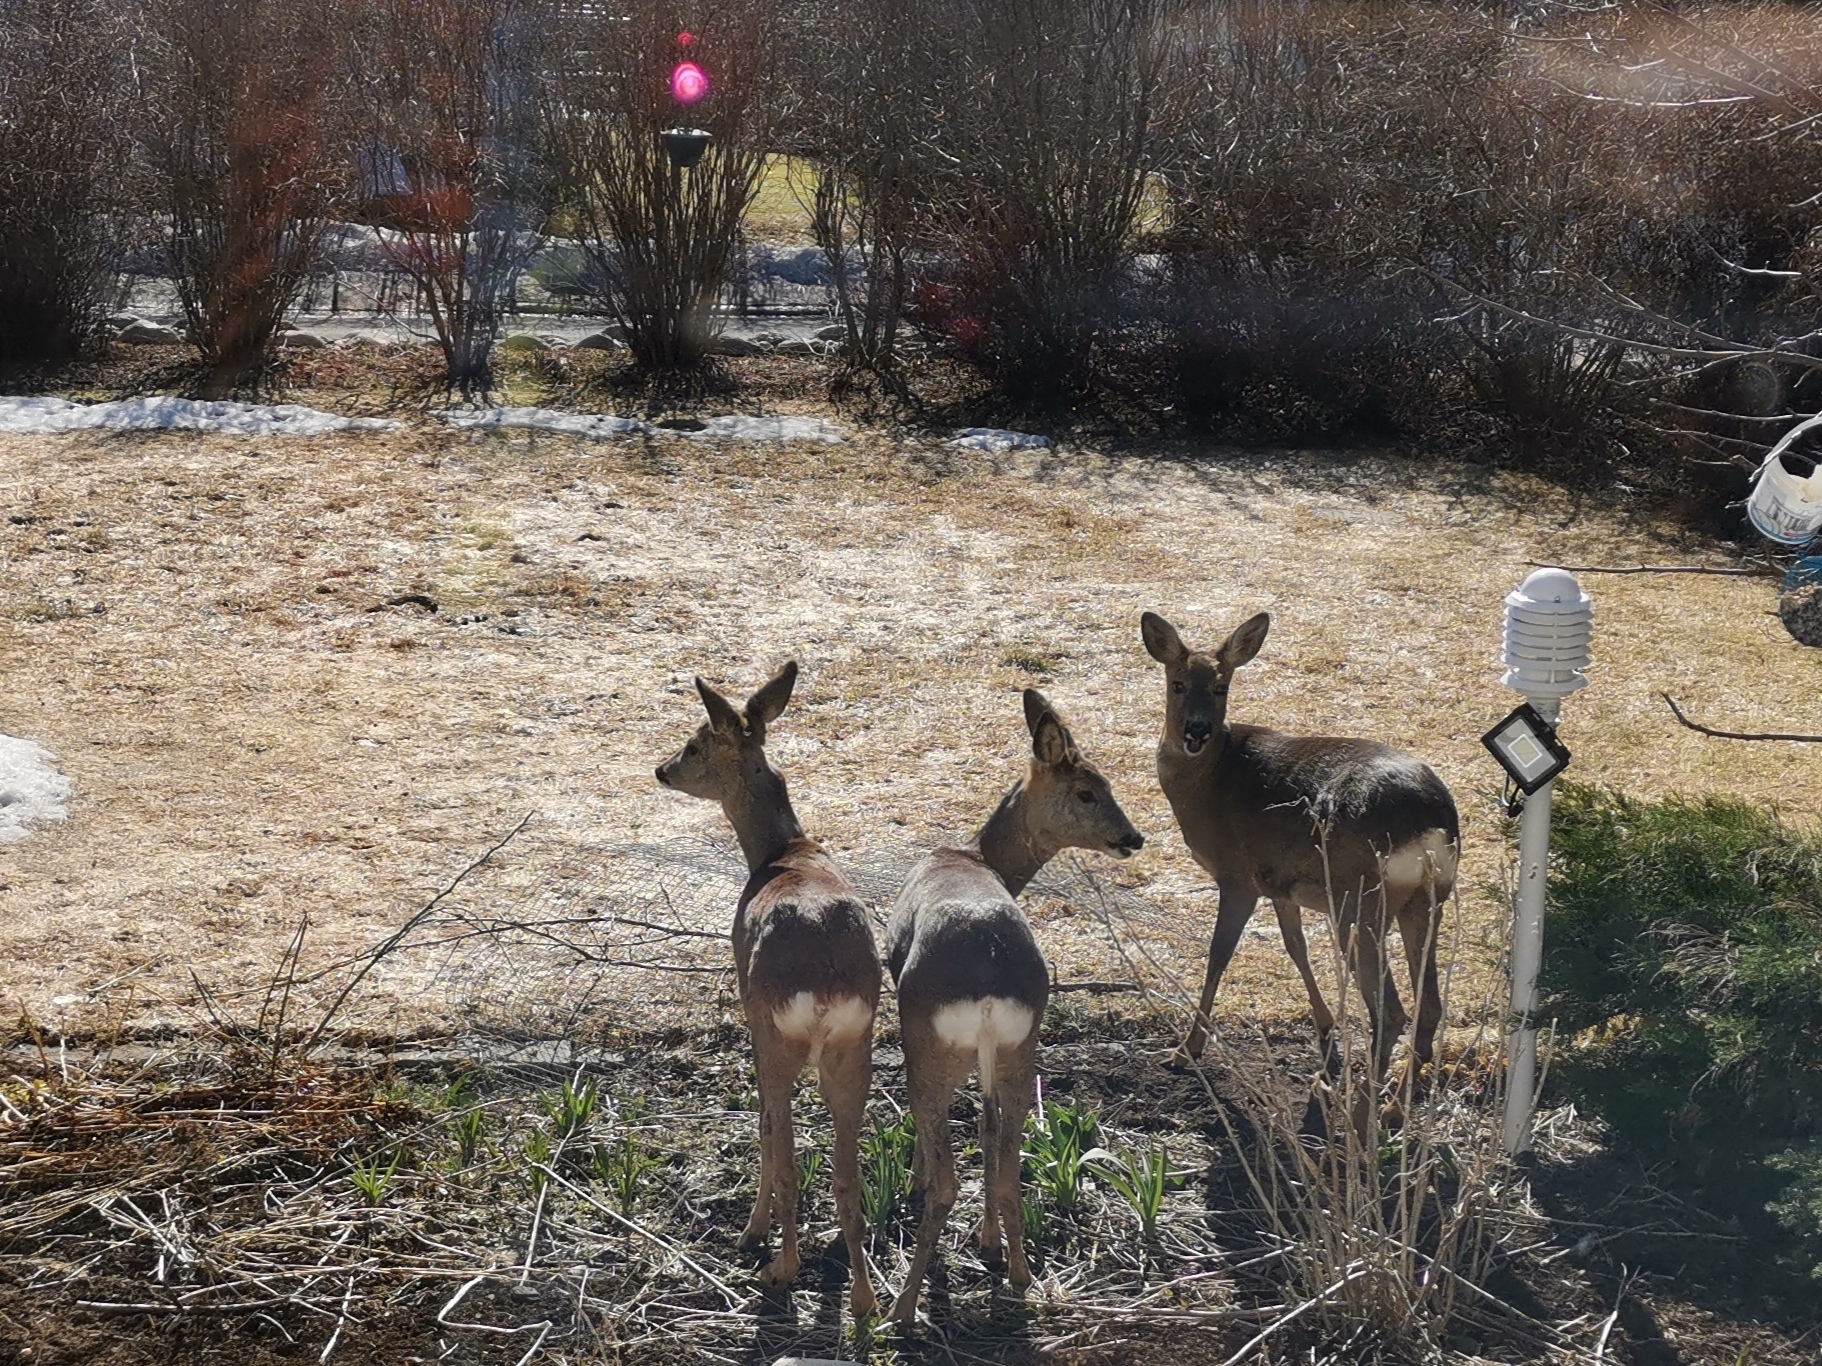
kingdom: Animalia
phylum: Chordata
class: Mammalia
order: Artiodactyla
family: Cervidae
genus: Capreolus
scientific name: Capreolus capreolus
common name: Western roe deer
